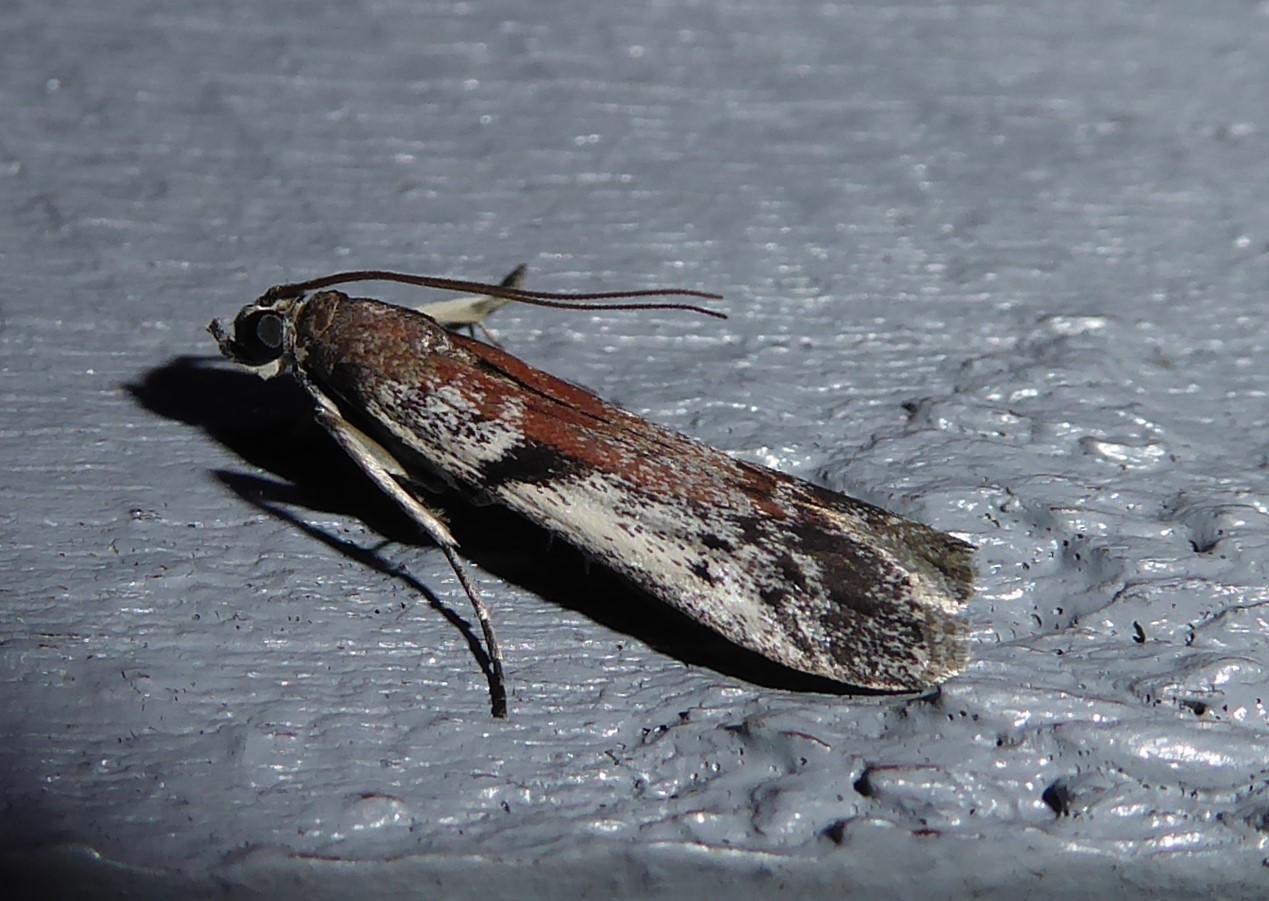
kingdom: Animalia
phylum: Arthropoda
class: Insecta
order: Lepidoptera
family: Pyralidae
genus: Patagoniodes
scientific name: Patagoniodes farinaria
